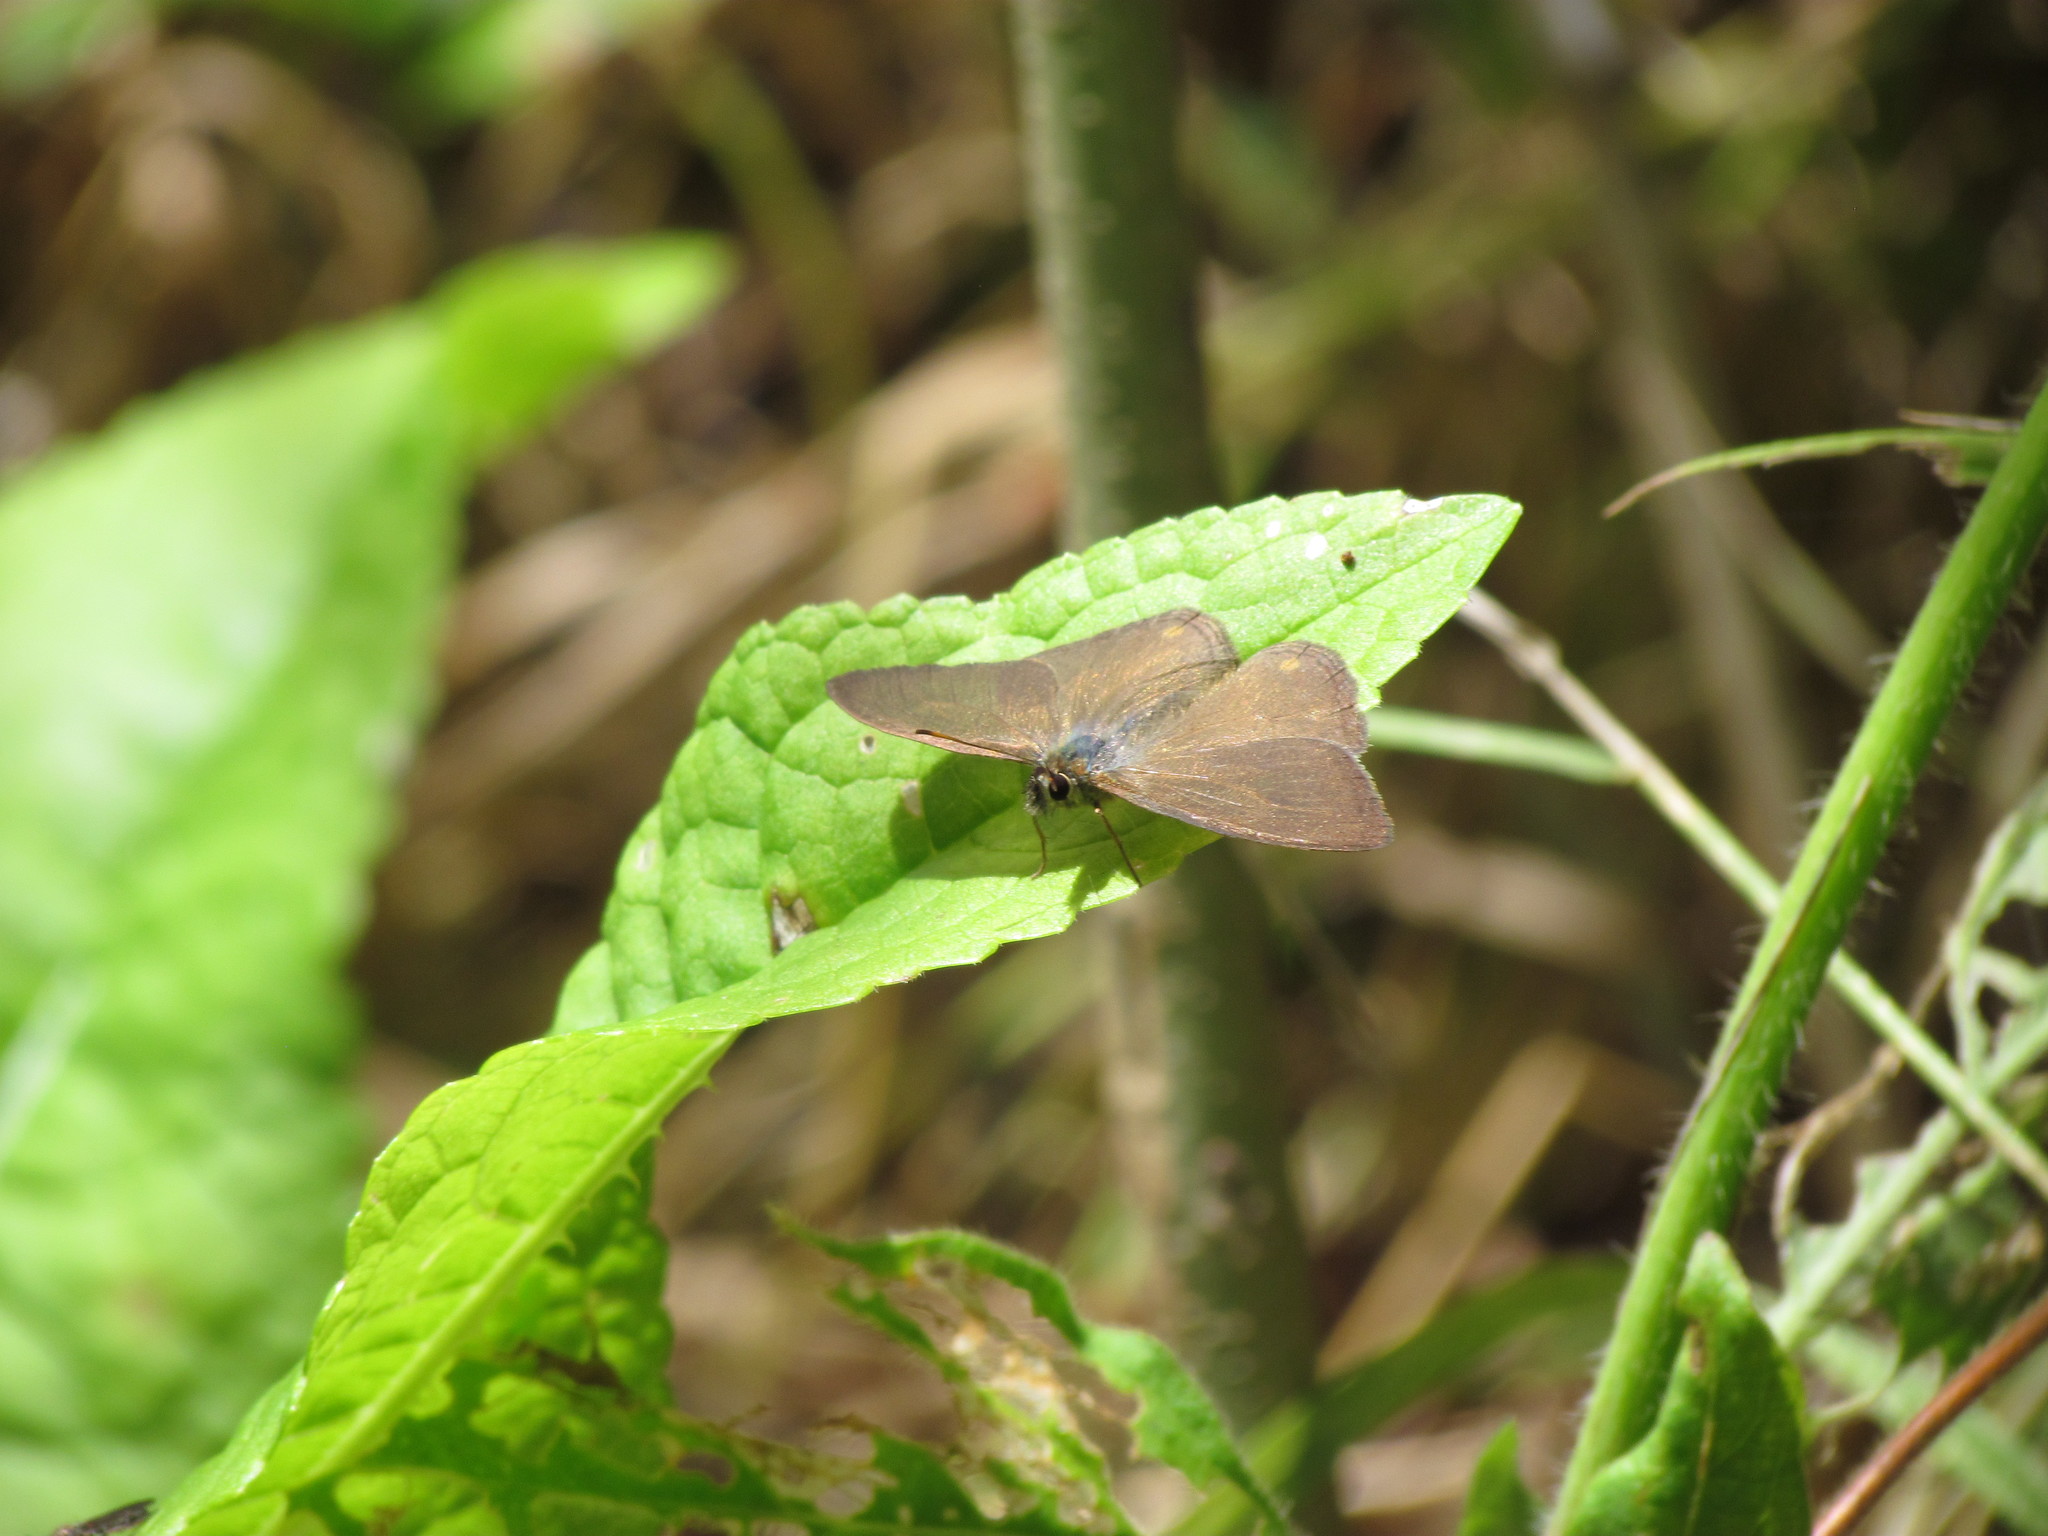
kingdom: Animalia
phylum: Arthropoda
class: Insecta
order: Lepidoptera
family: Nymphalidae
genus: Euptychia
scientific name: Euptychia
